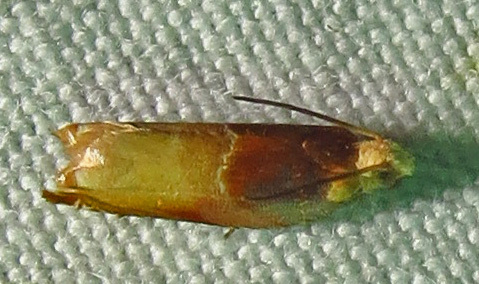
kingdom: Animalia
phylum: Arthropoda
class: Insecta
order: Lepidoptera
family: Tortricidae
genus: Ancylis
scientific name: Ancylis divisana
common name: Two-toned ancylis moth
